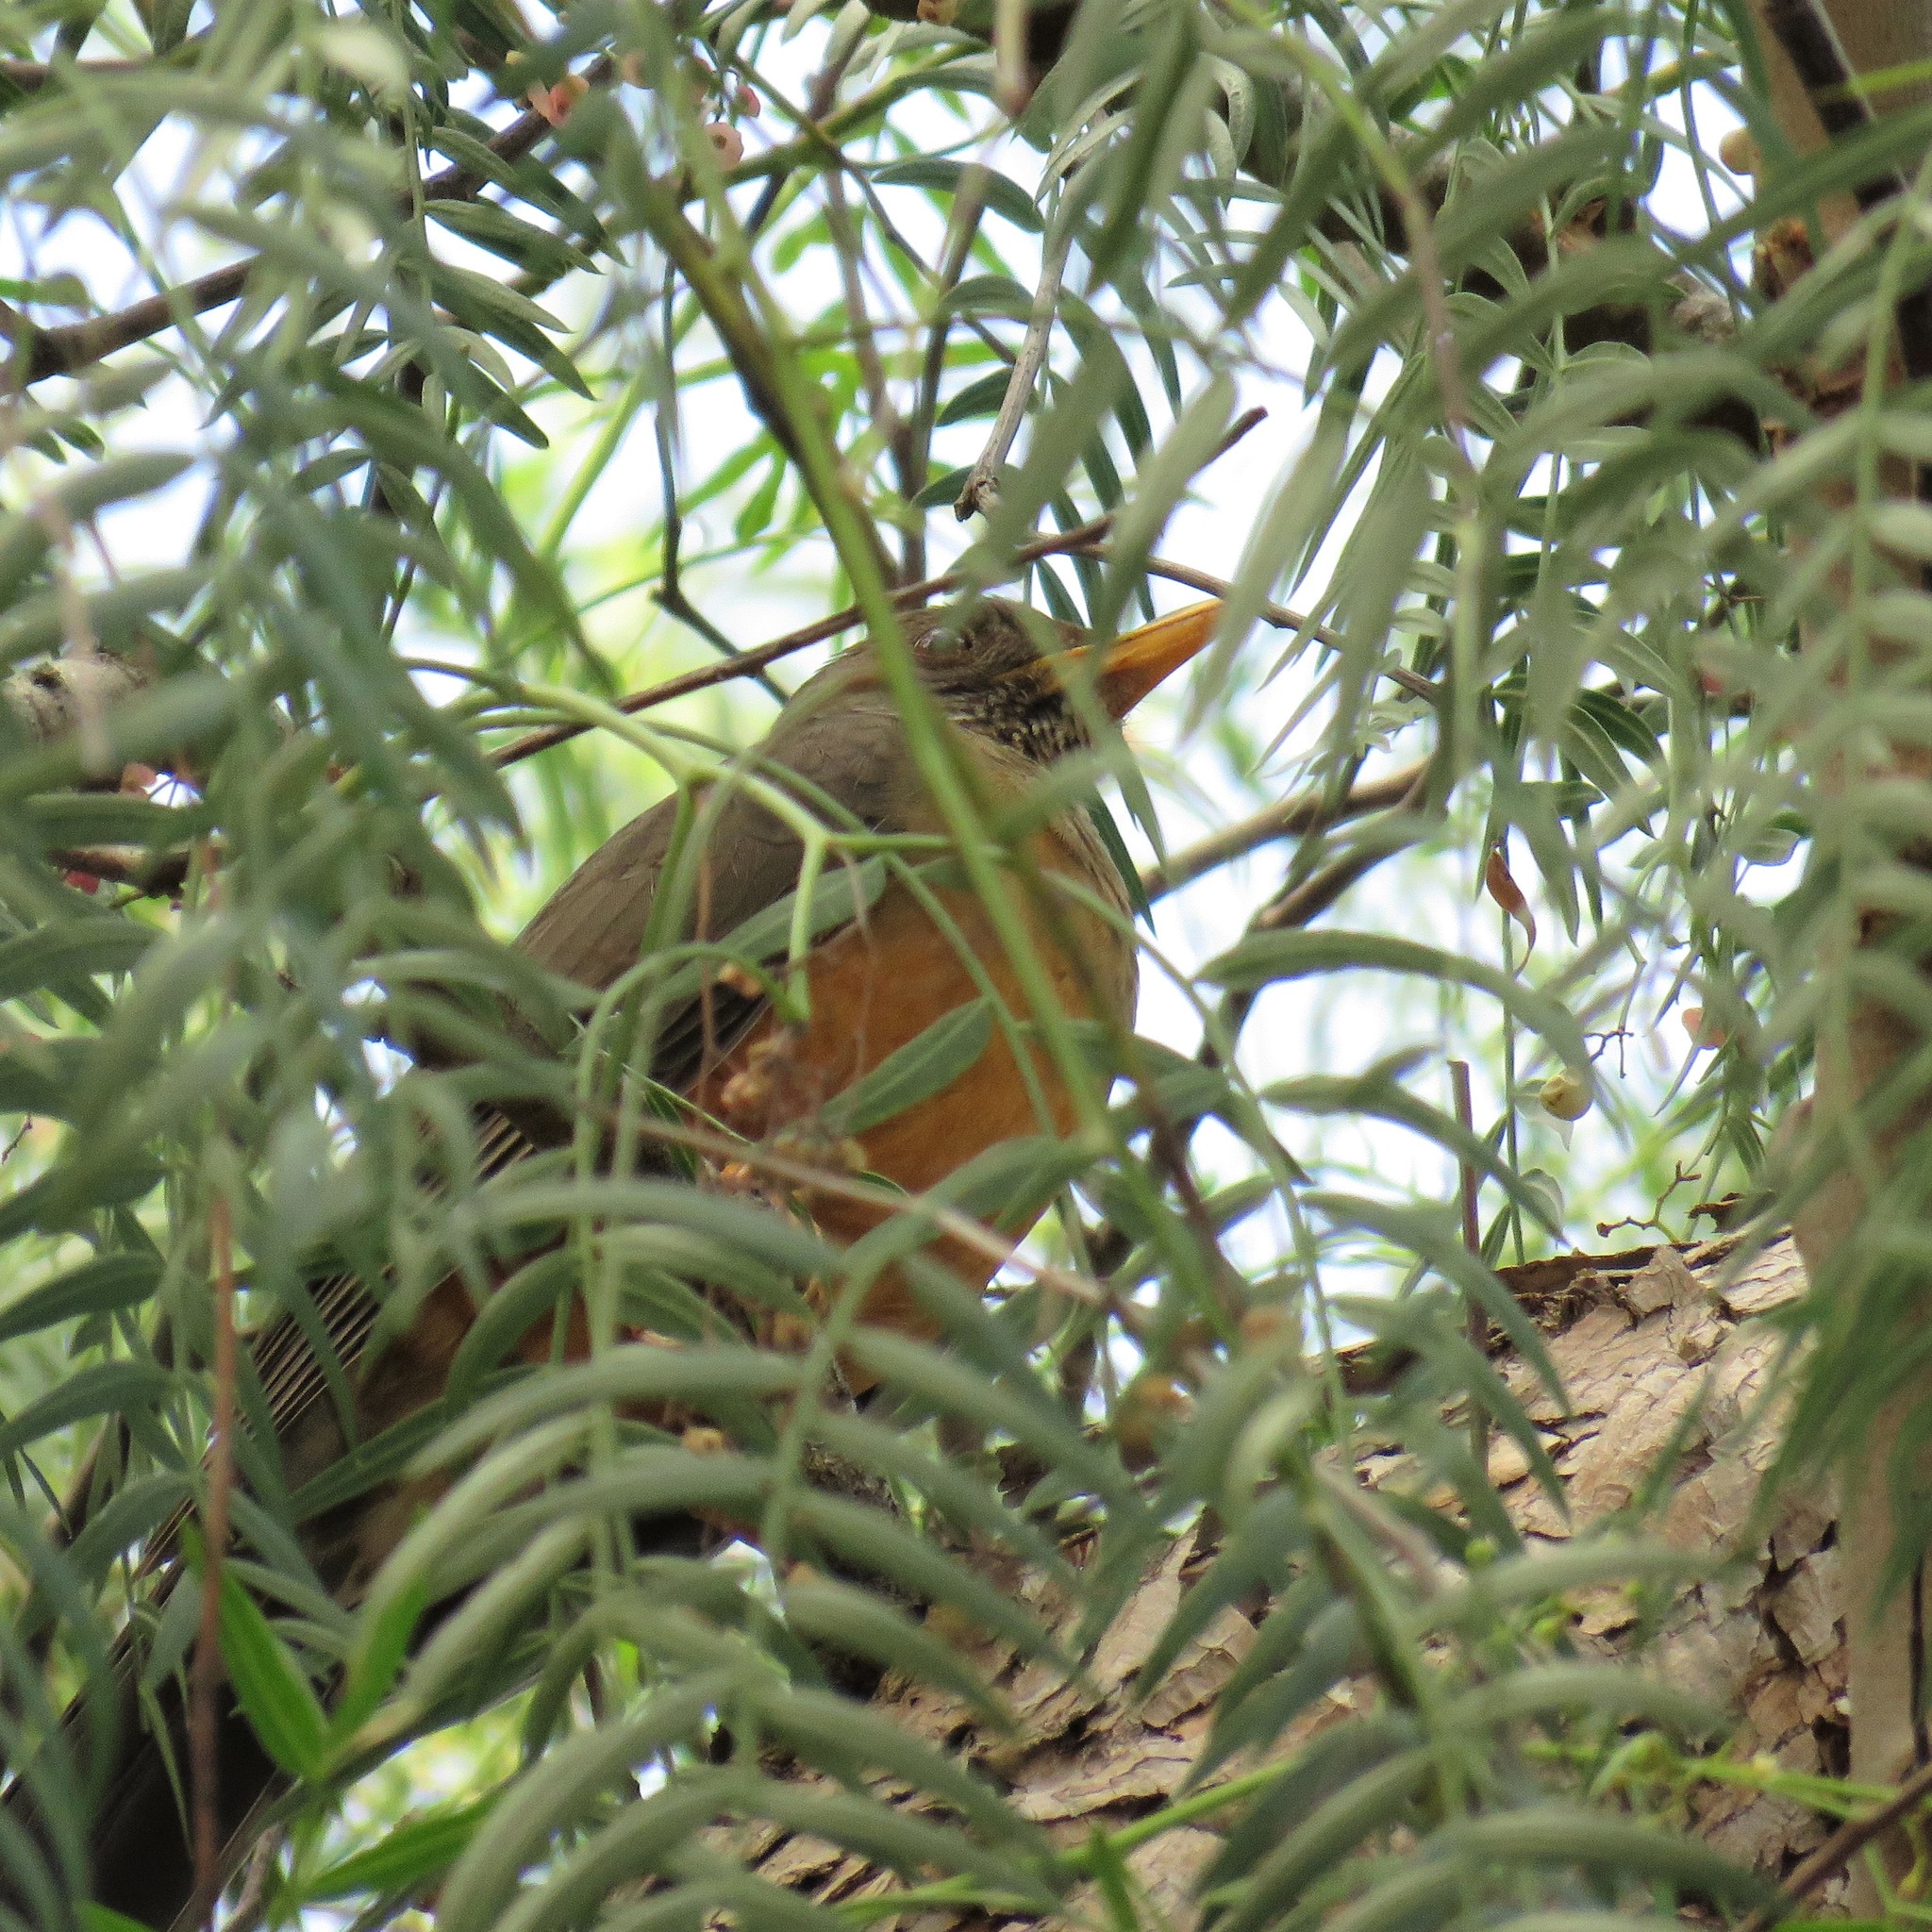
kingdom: Animalia
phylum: Chordata
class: Aves
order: Passeriformes
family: Turdidae
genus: Turdus
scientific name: Turdus olivaceus
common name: Olive thrush
